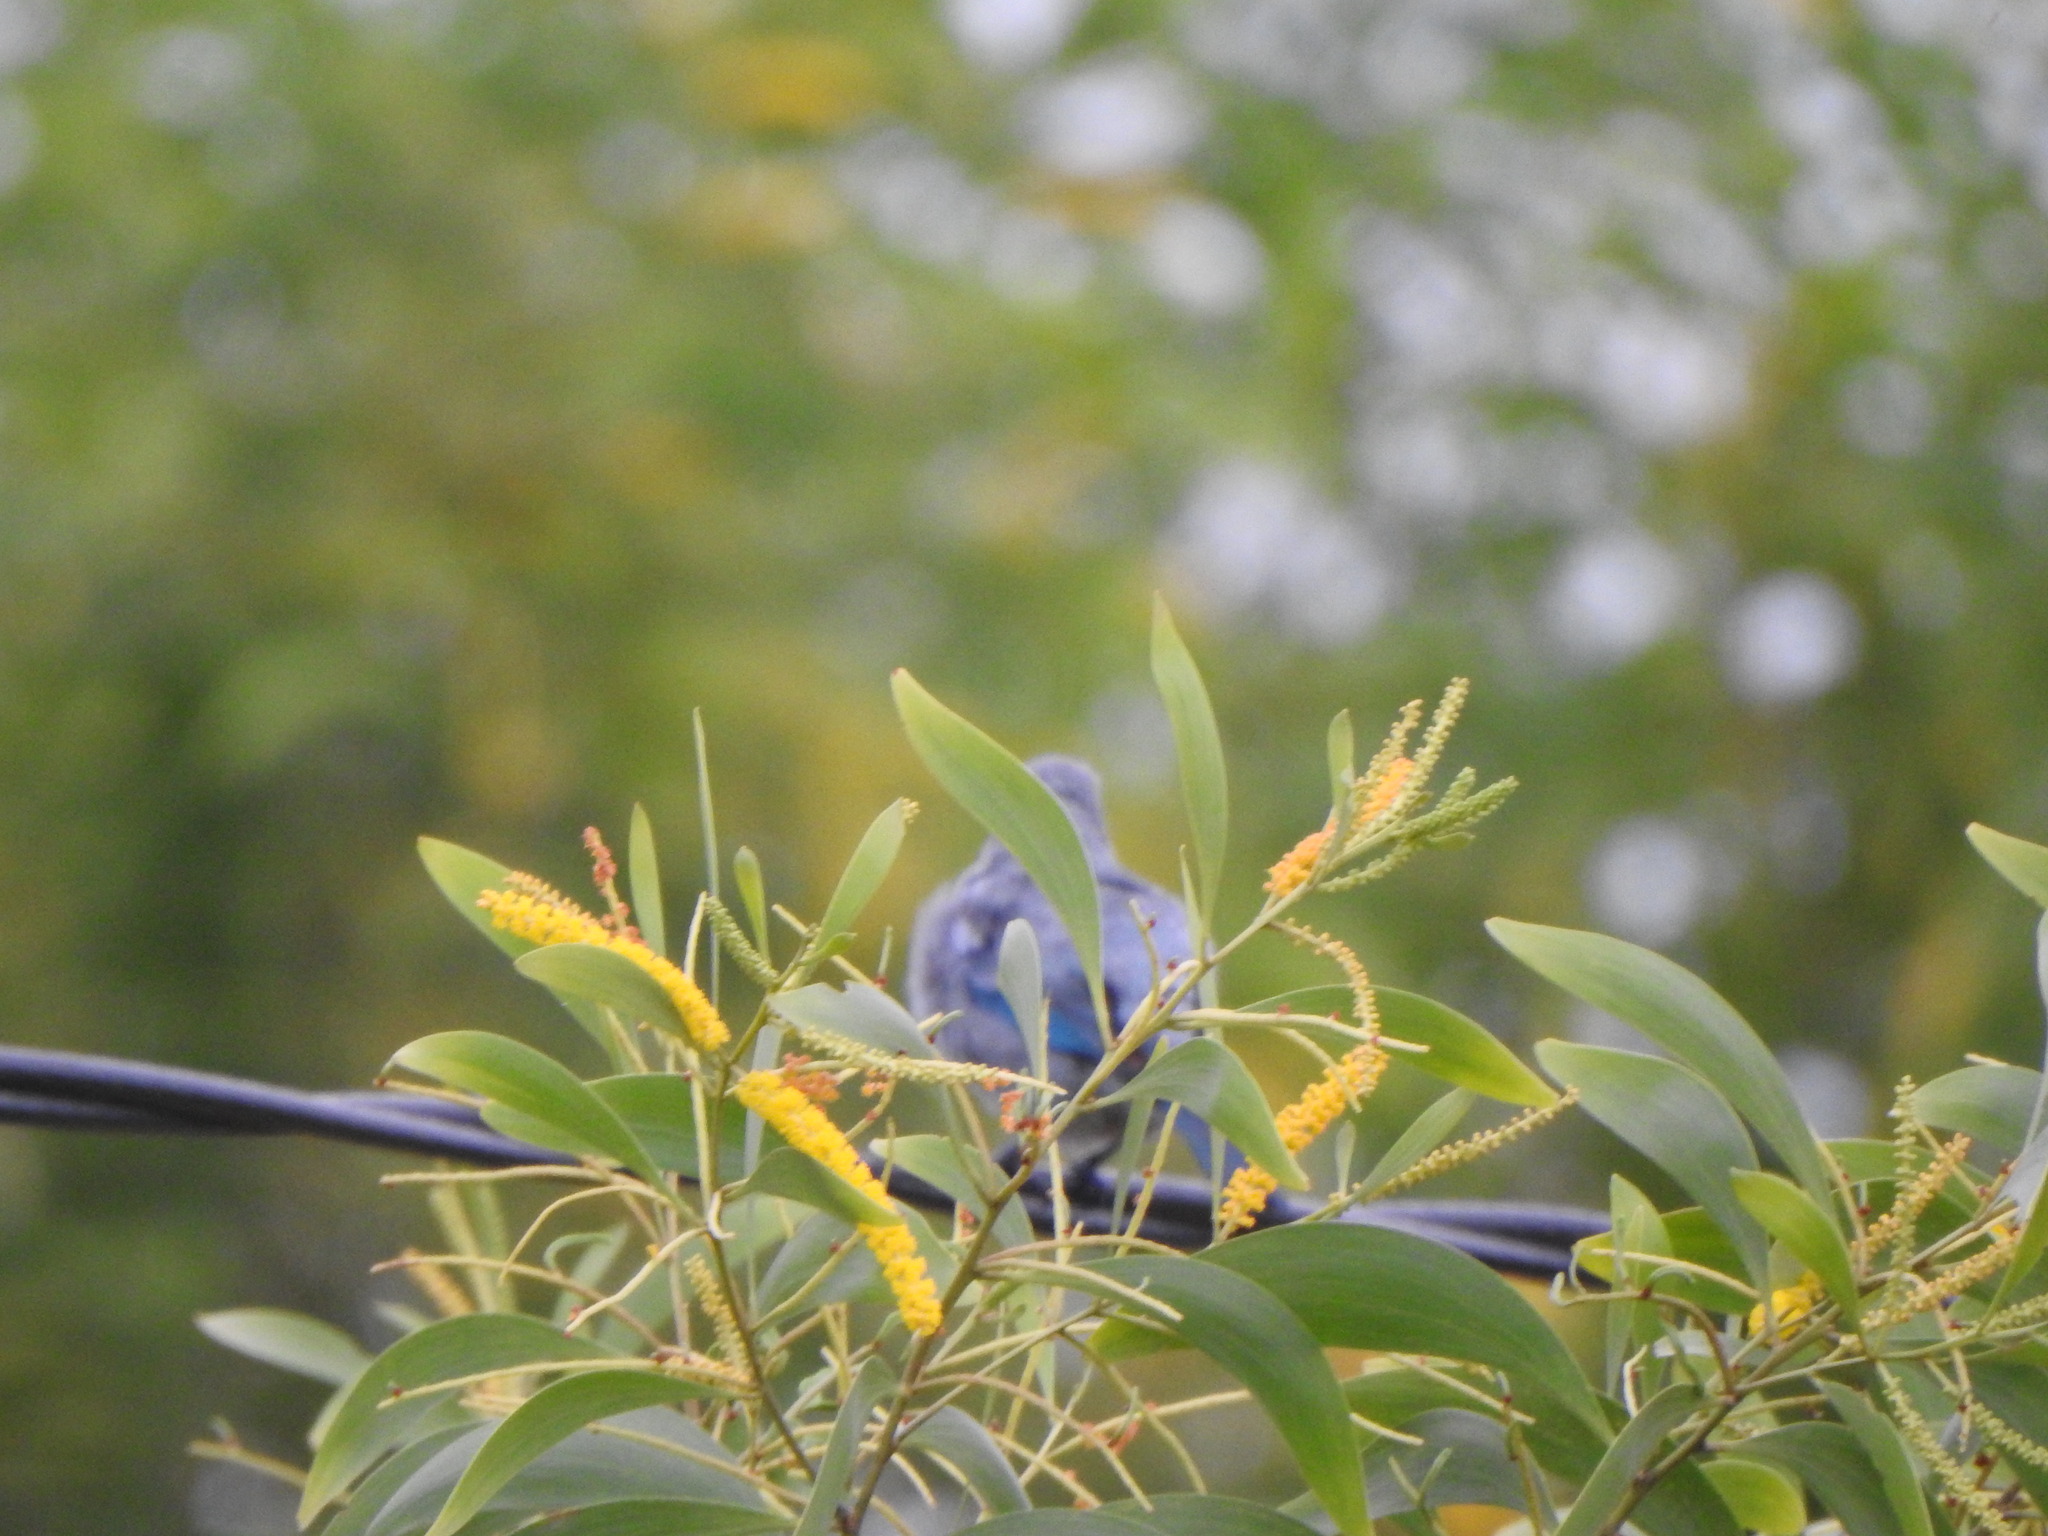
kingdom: Animalia
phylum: Chordata
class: Aves
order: Passeriformes
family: Thraupidae
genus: Thraupis
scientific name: Thraupis episcopus
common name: Blue-grey tanager
